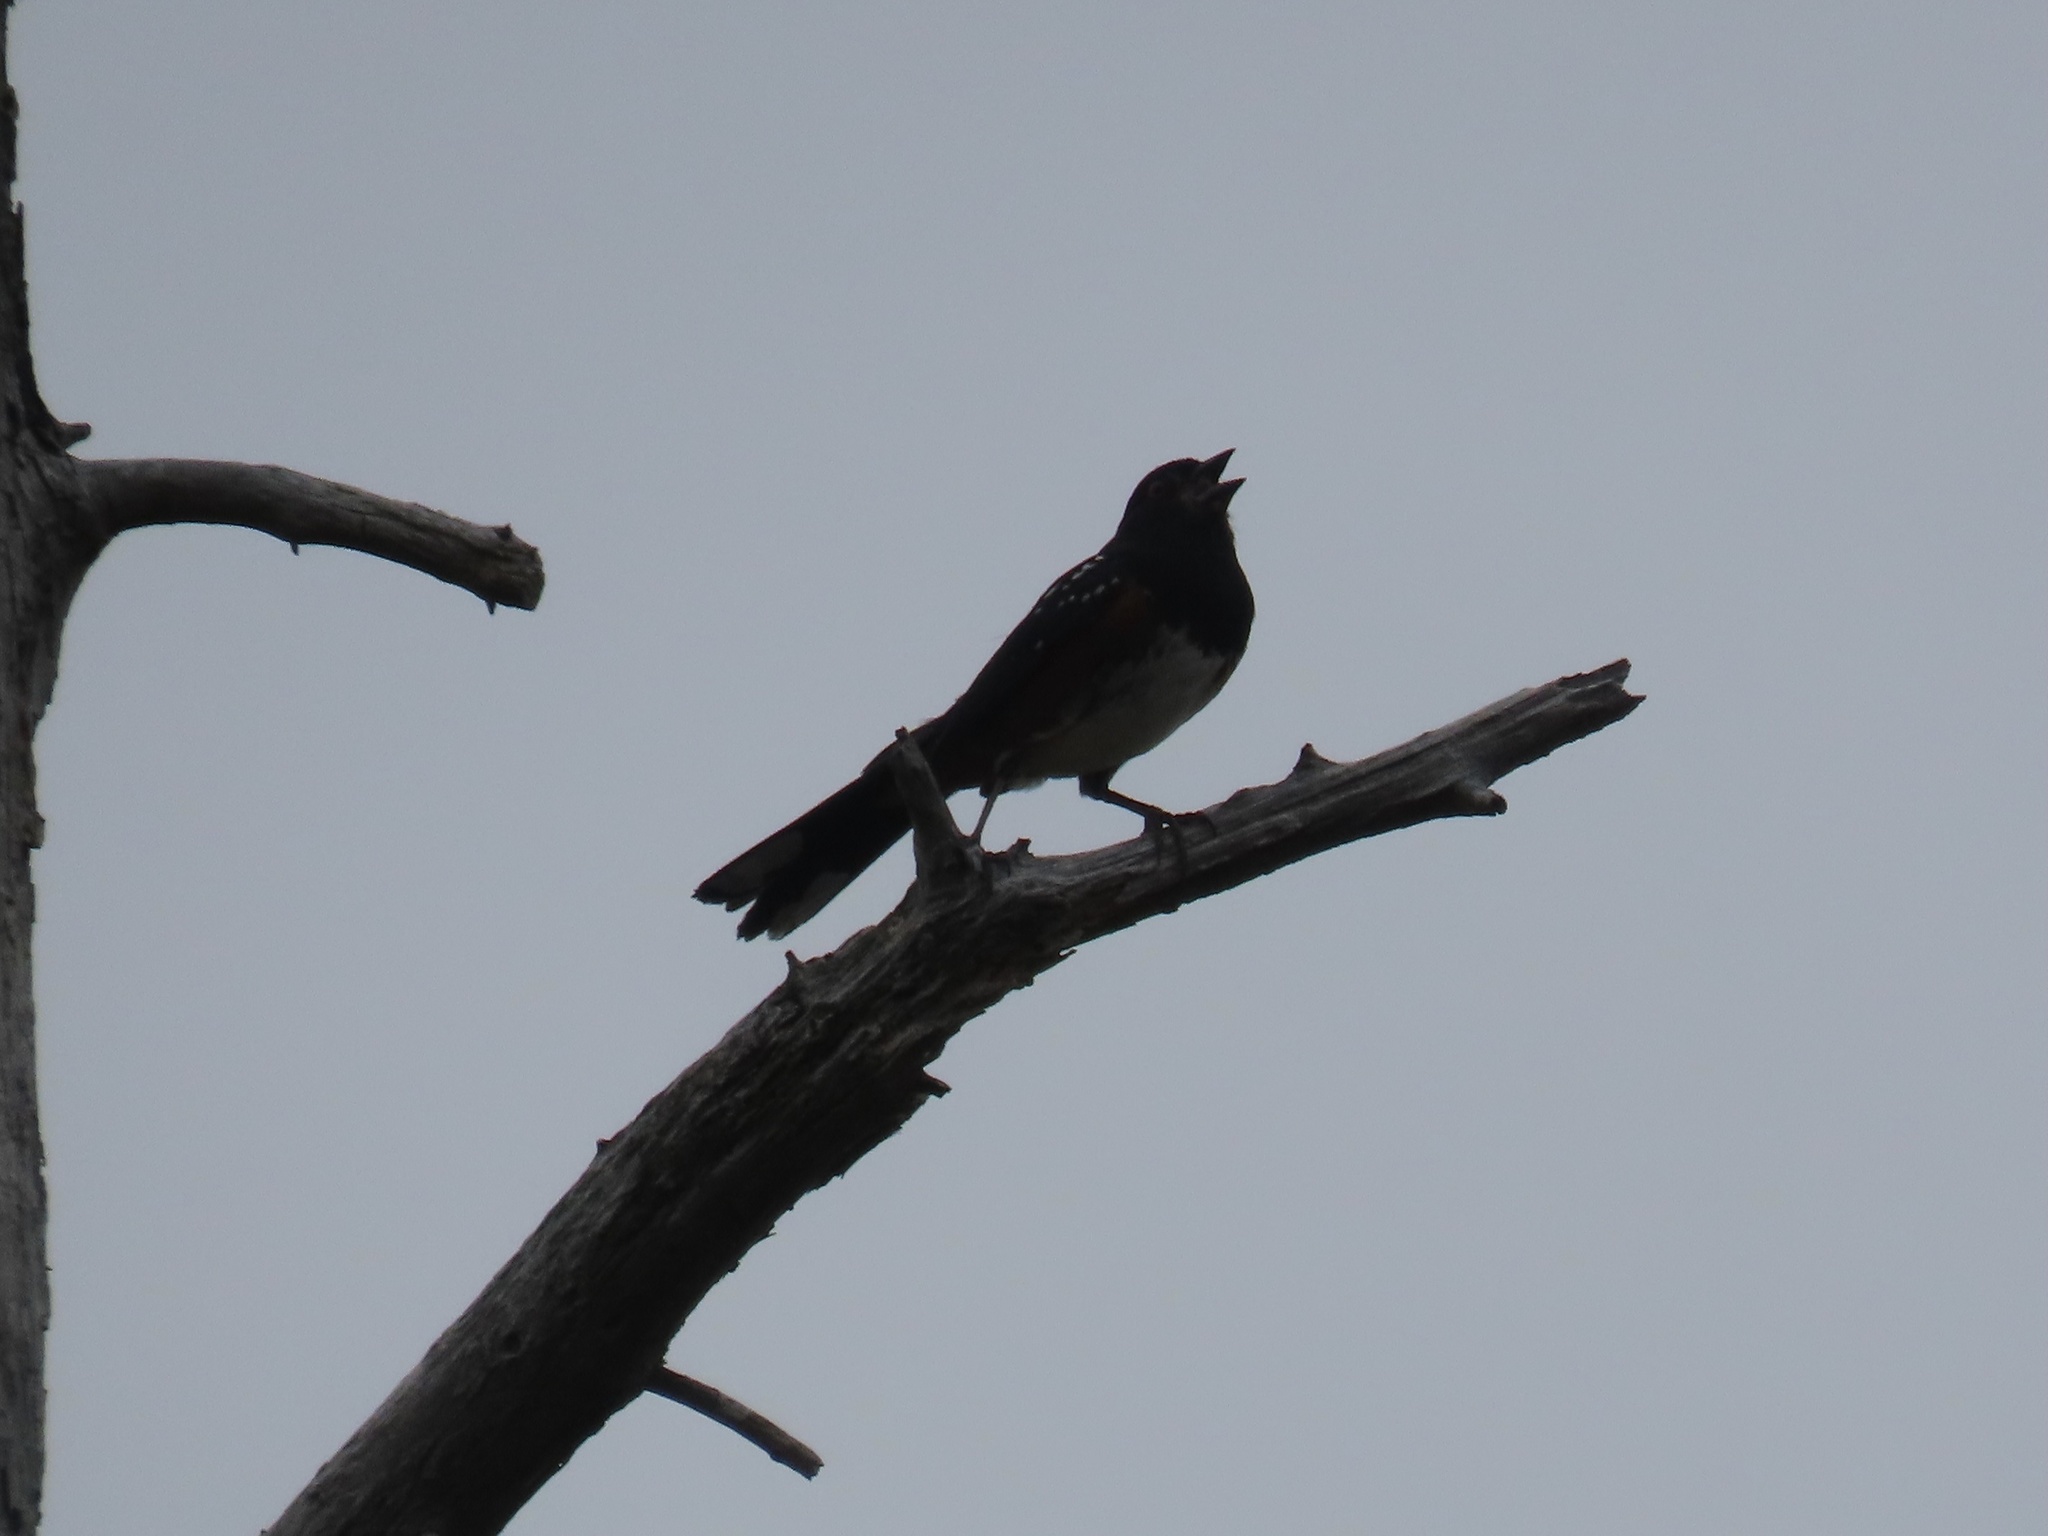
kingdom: Animalia
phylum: Chordata
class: Aves
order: Passeriformes
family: Passerellidae
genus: Pipilo
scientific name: Pipilo maculatus
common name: Spotted towhee
